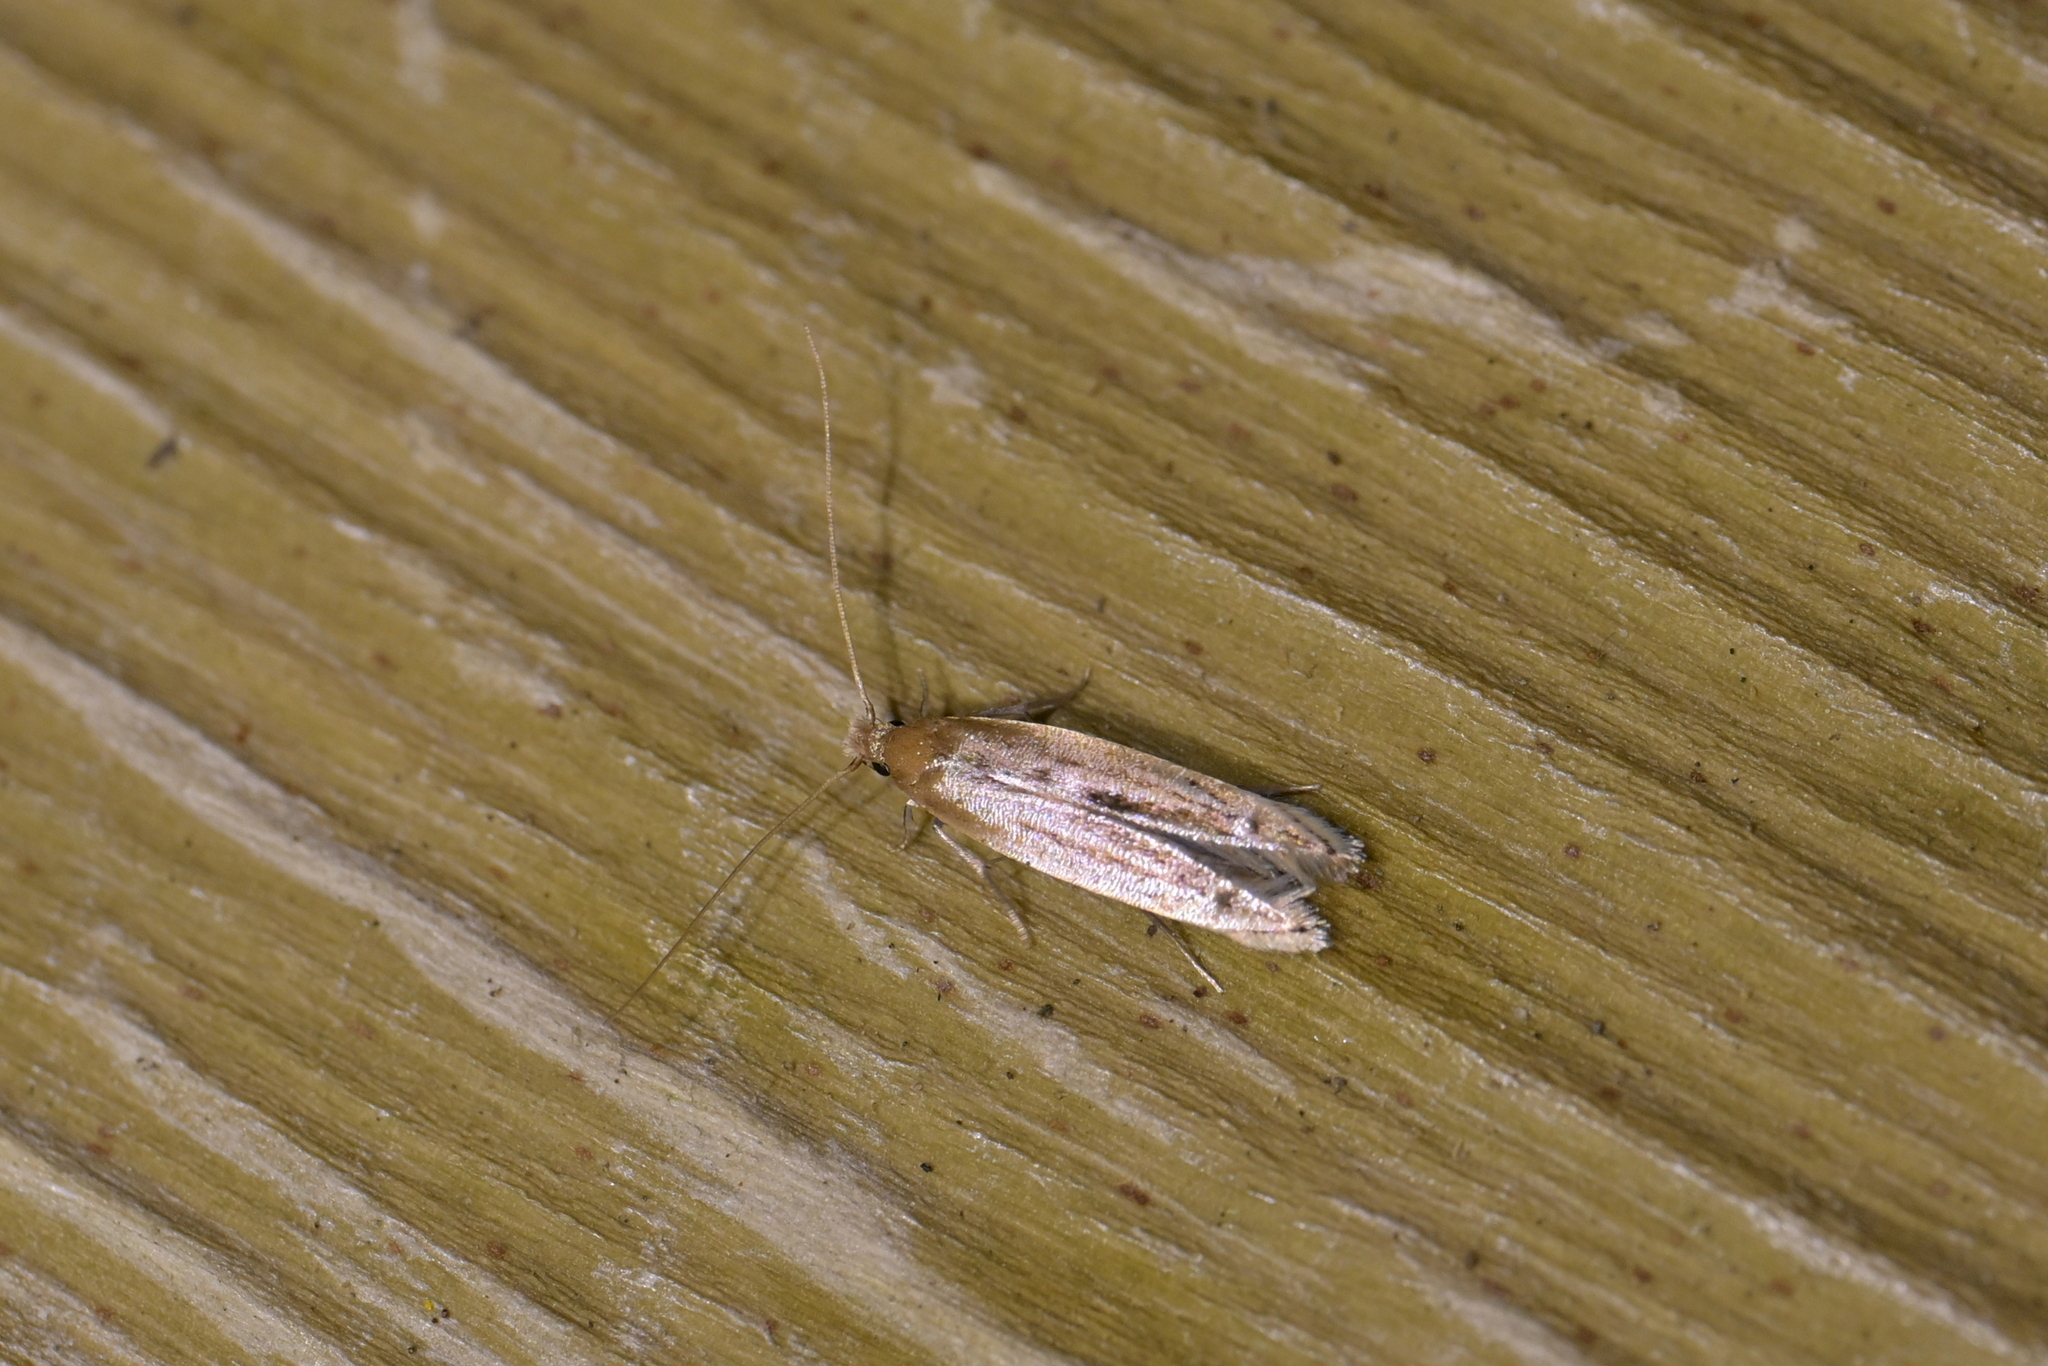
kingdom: Animalia
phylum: Arthropoda
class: Insecta
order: Lepidoptera
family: Tineidae
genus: Amphixystis
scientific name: Amphixystis hapsimacha
